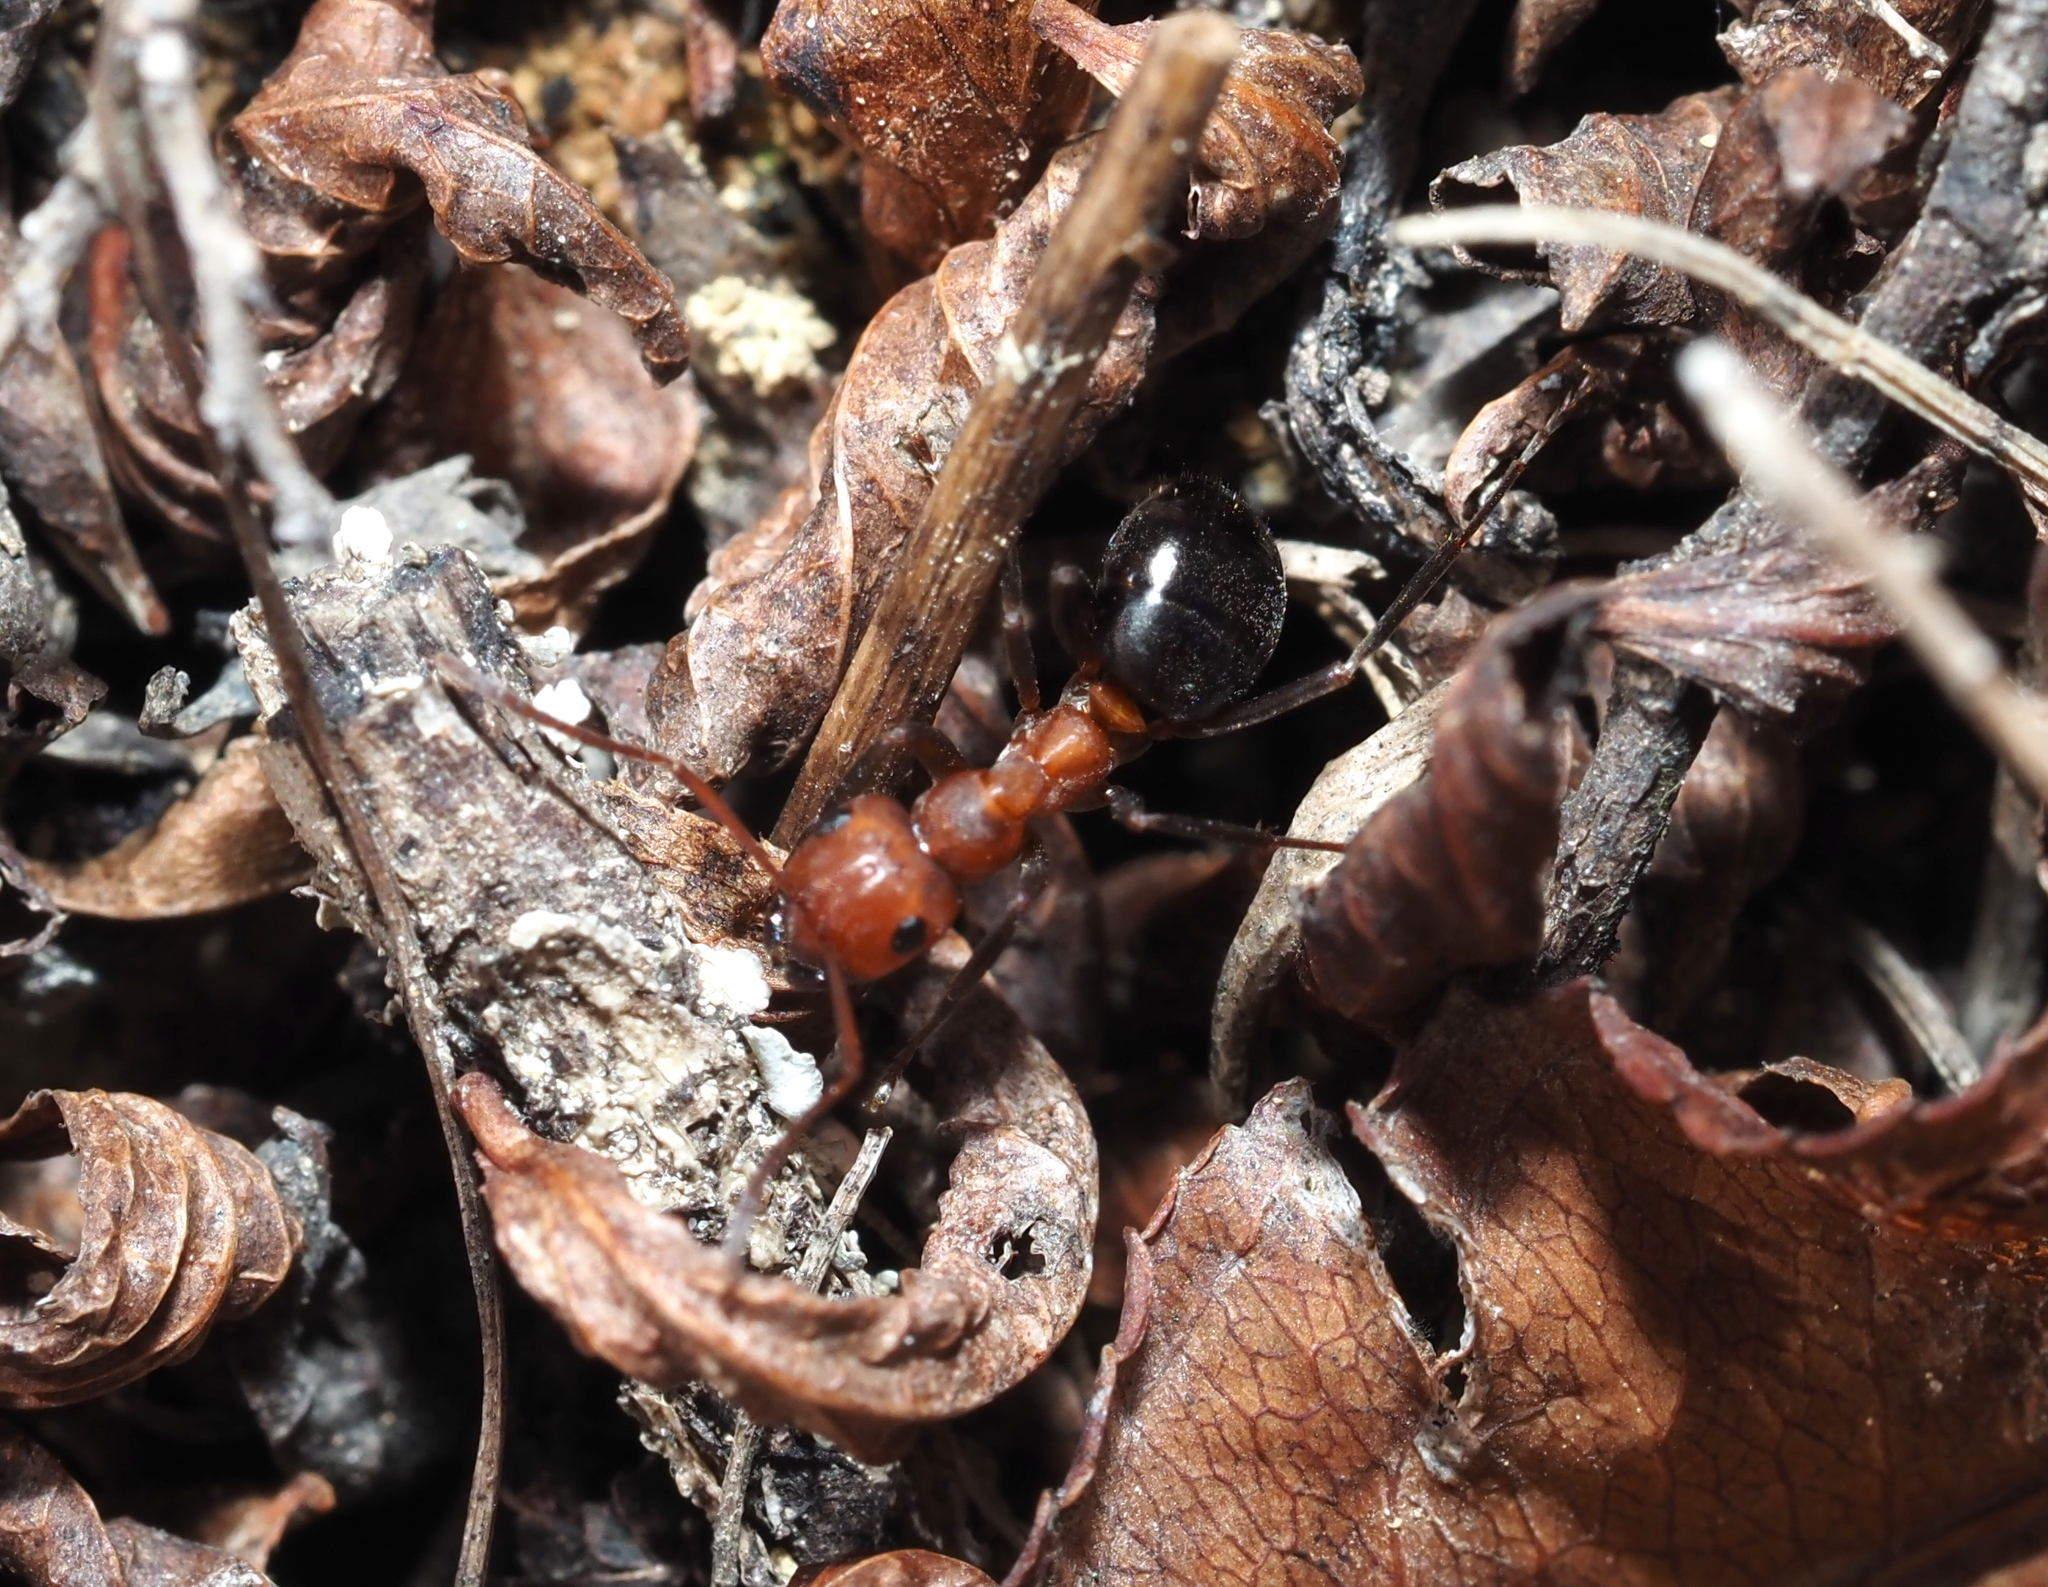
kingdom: Animalia
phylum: Arthropoda
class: Insecta
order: Hymenoptera
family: Formicidae
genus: Formica
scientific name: Formica exsectoides
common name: Allegheny mound ant
